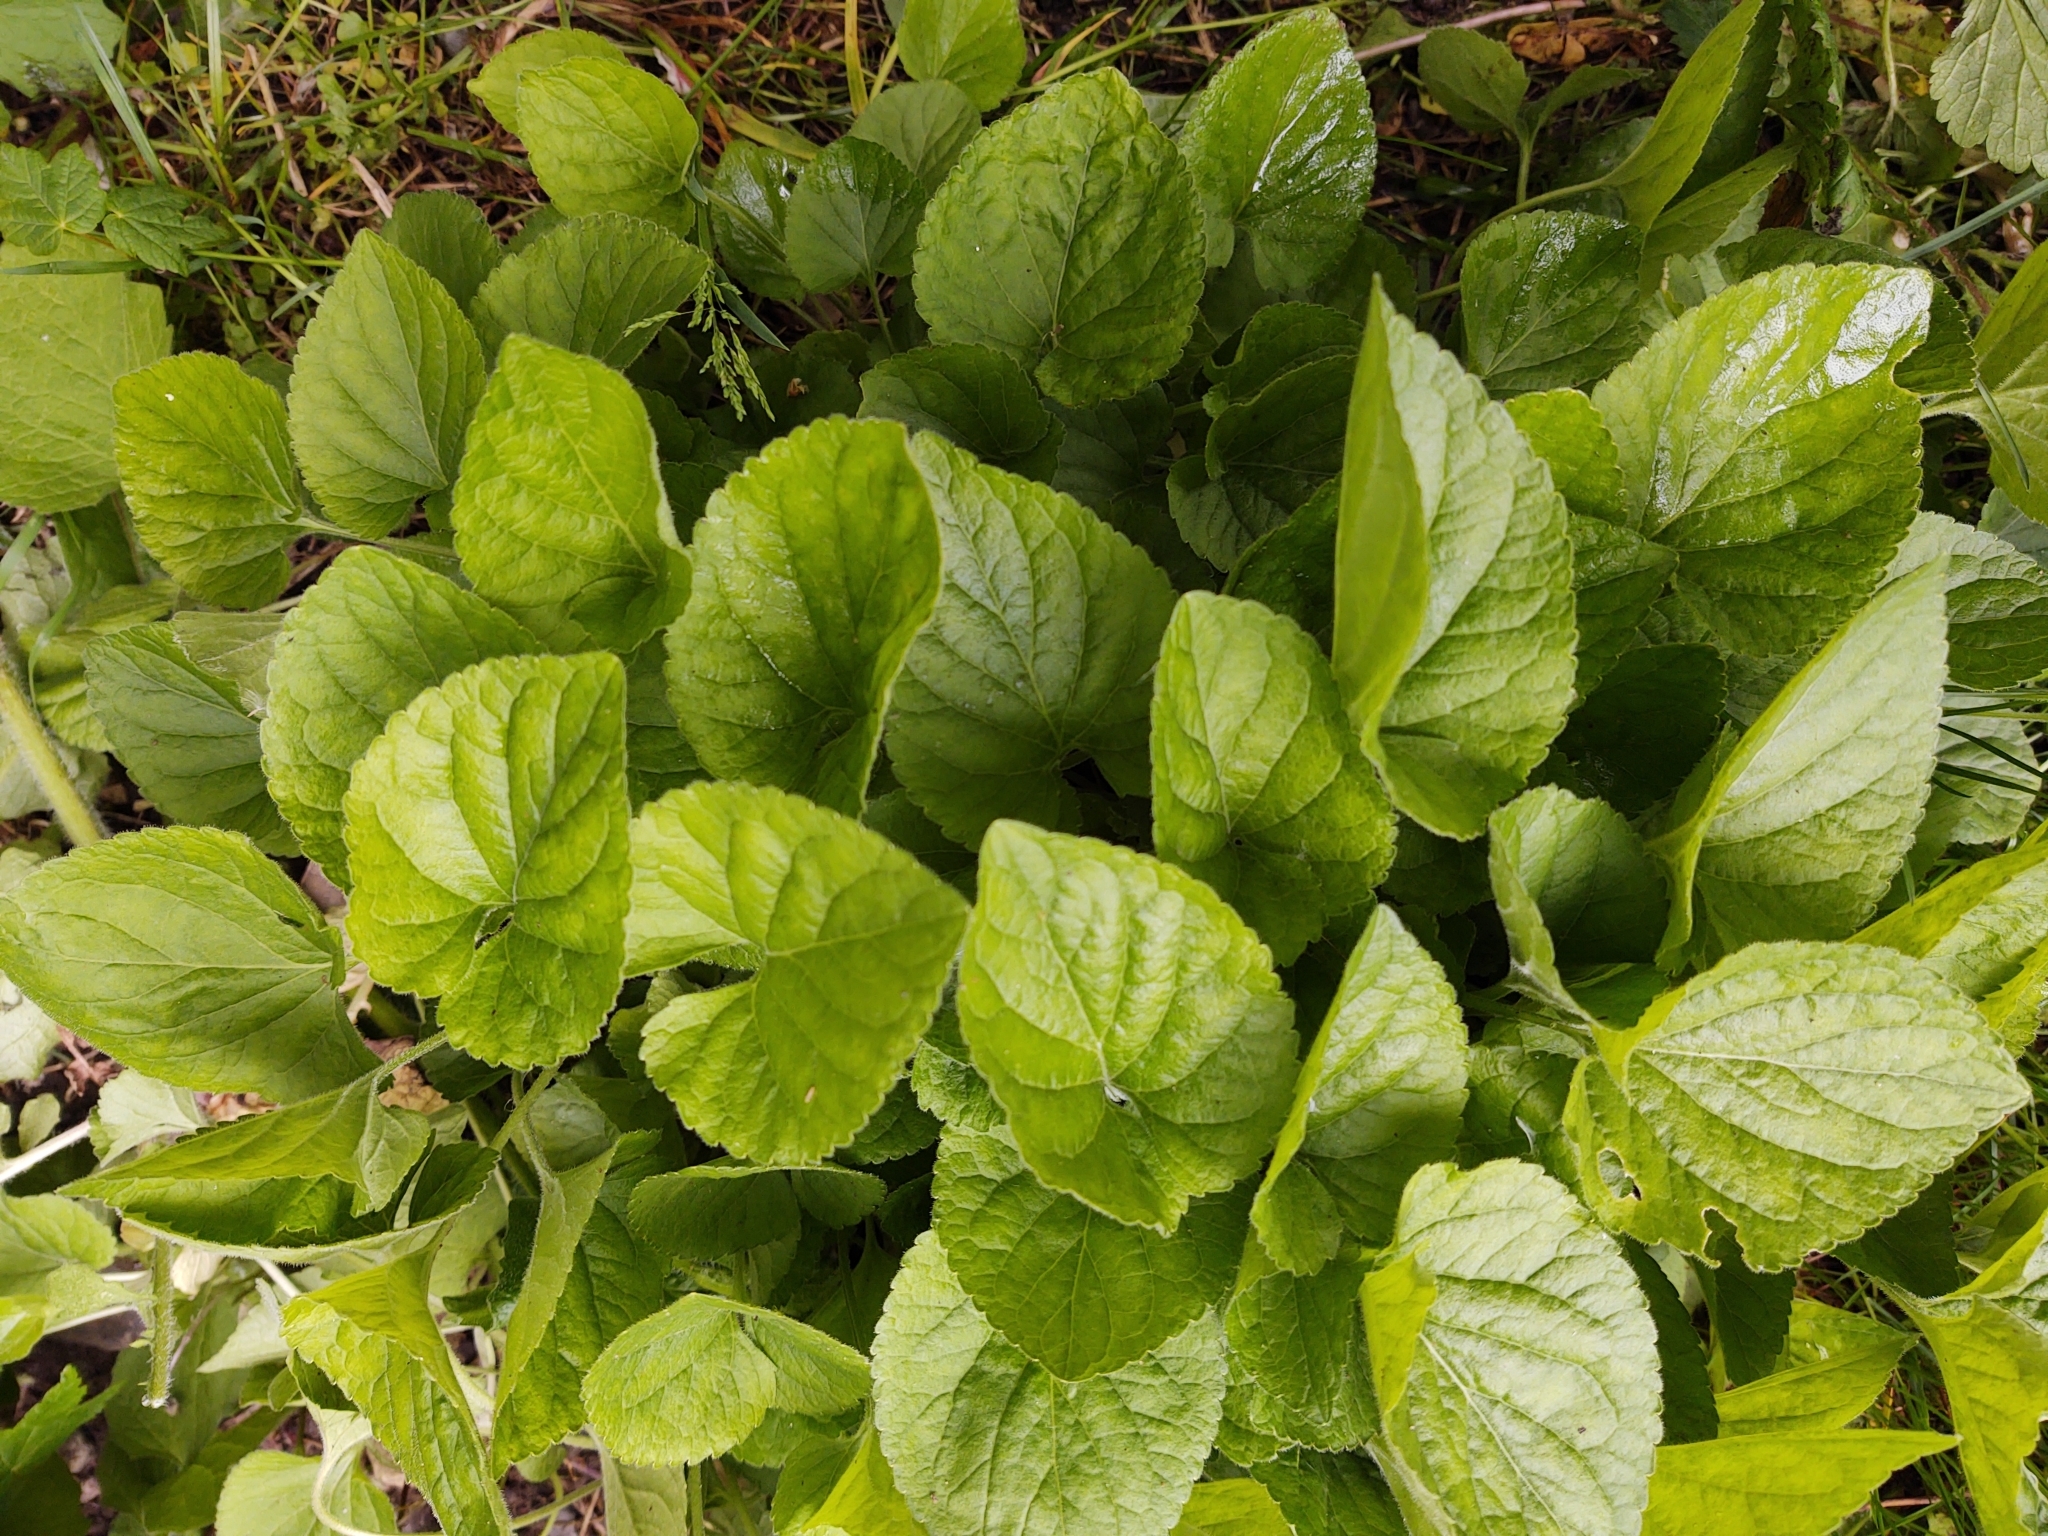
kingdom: Plantae
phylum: Tracheophyta
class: Magnoliopsida
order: Malpighiales
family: Violaceae
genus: Viola
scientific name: Viola odorata
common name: Sweet violet
